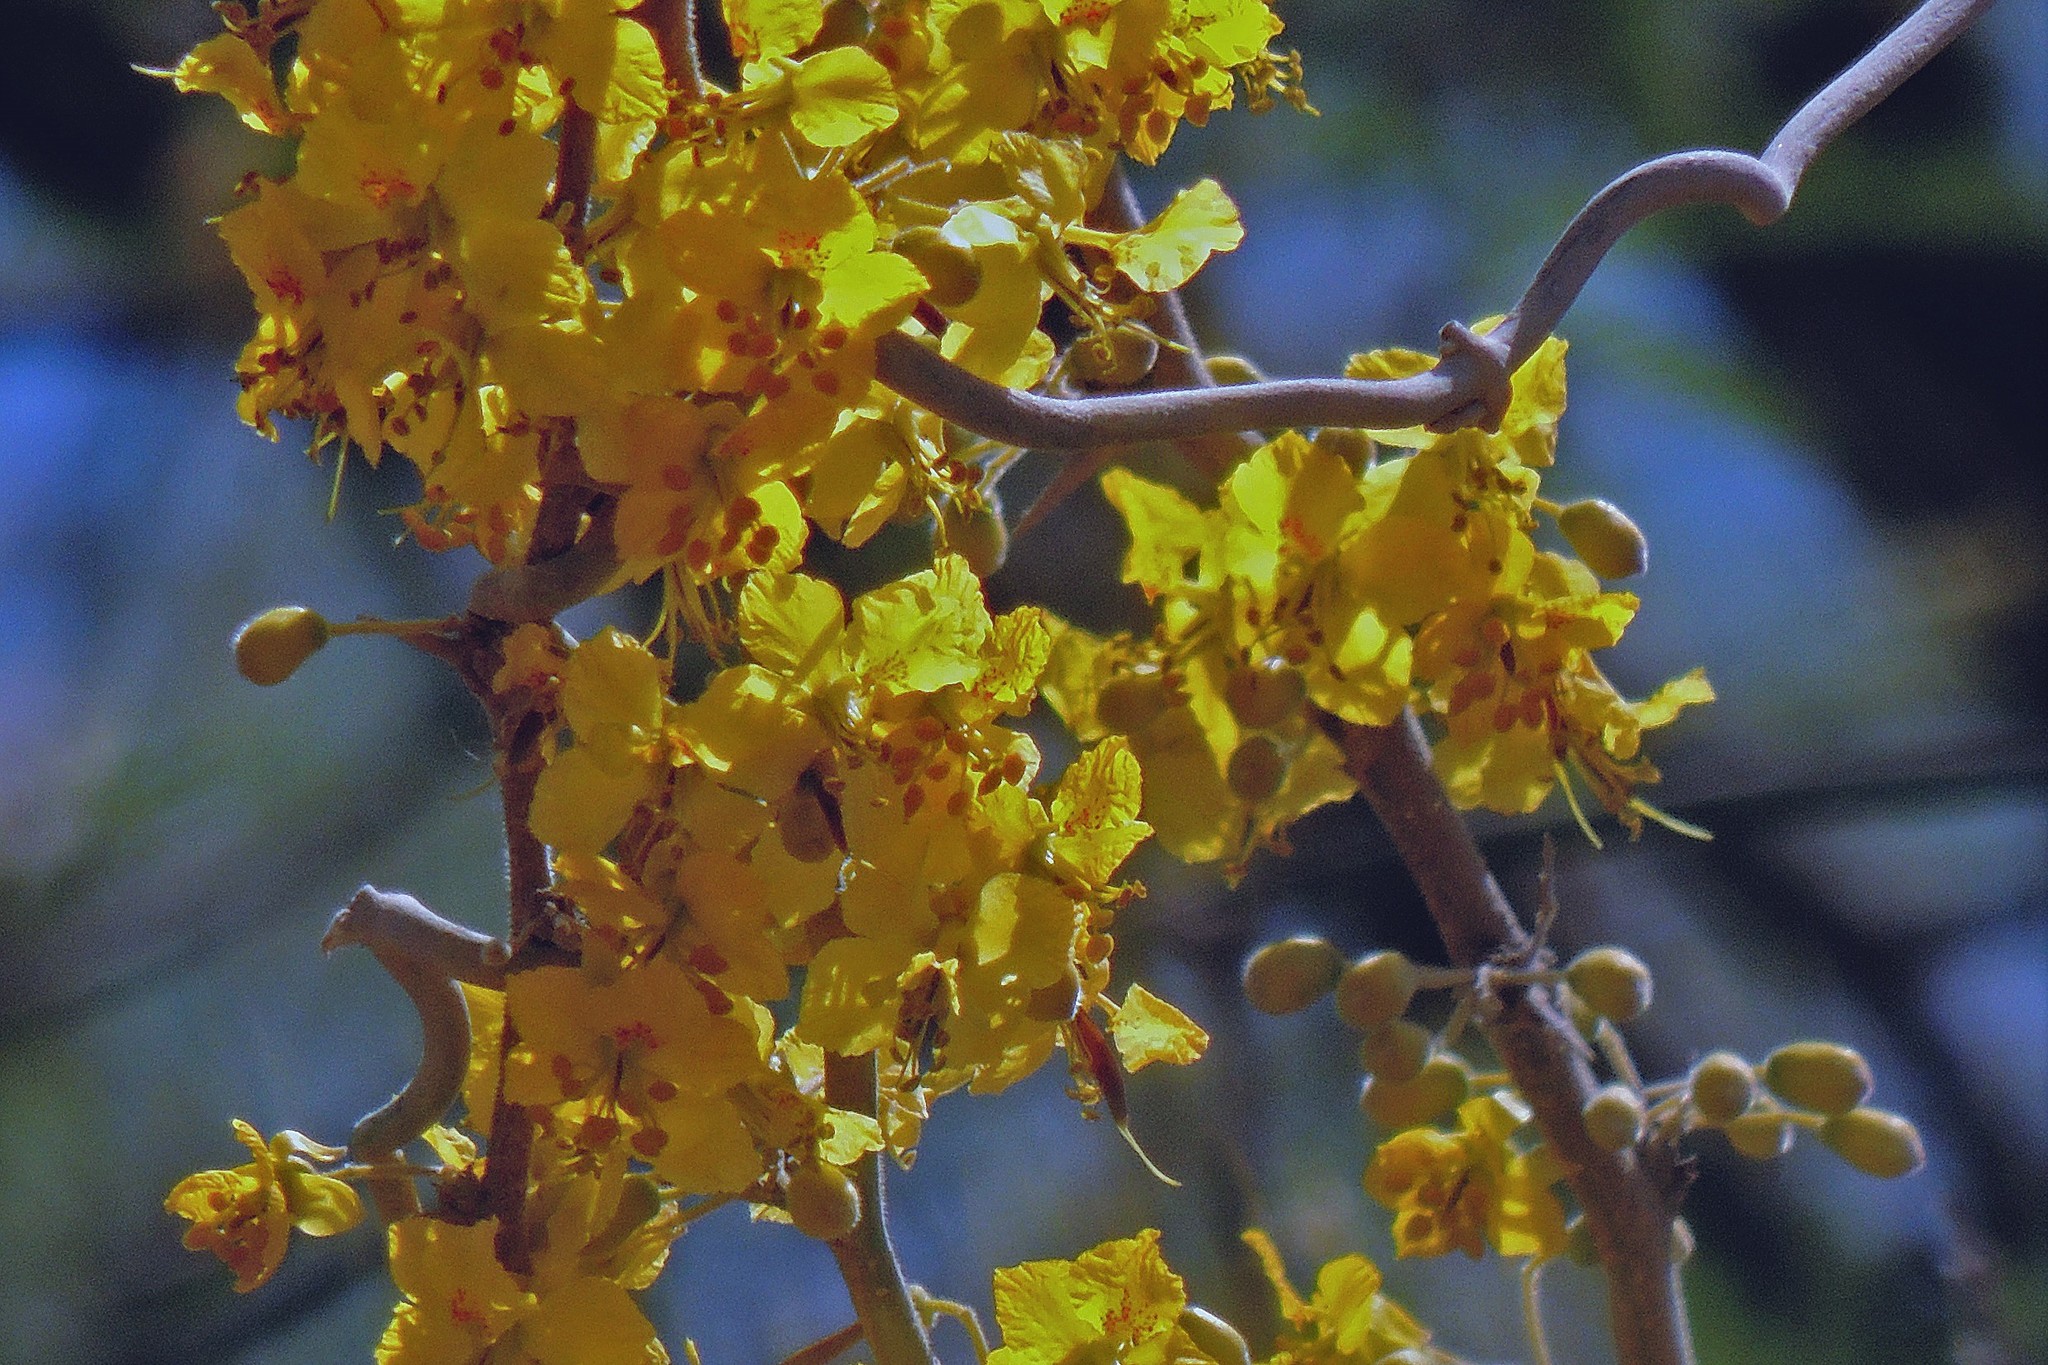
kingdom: Plantae
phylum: Tracheophyta
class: Magnoliopsida
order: Fabales
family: Fabaceae
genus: Parkinsonia
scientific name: Parkinsonia praecox
